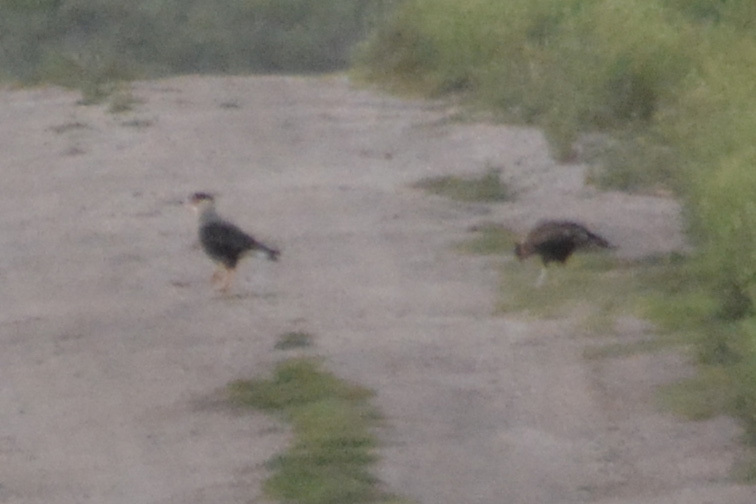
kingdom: Animalia
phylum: Chordata
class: Aves
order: Falconiformes
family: Falconidae
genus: Caracara
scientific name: Caracara plancus
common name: Southern caracara
